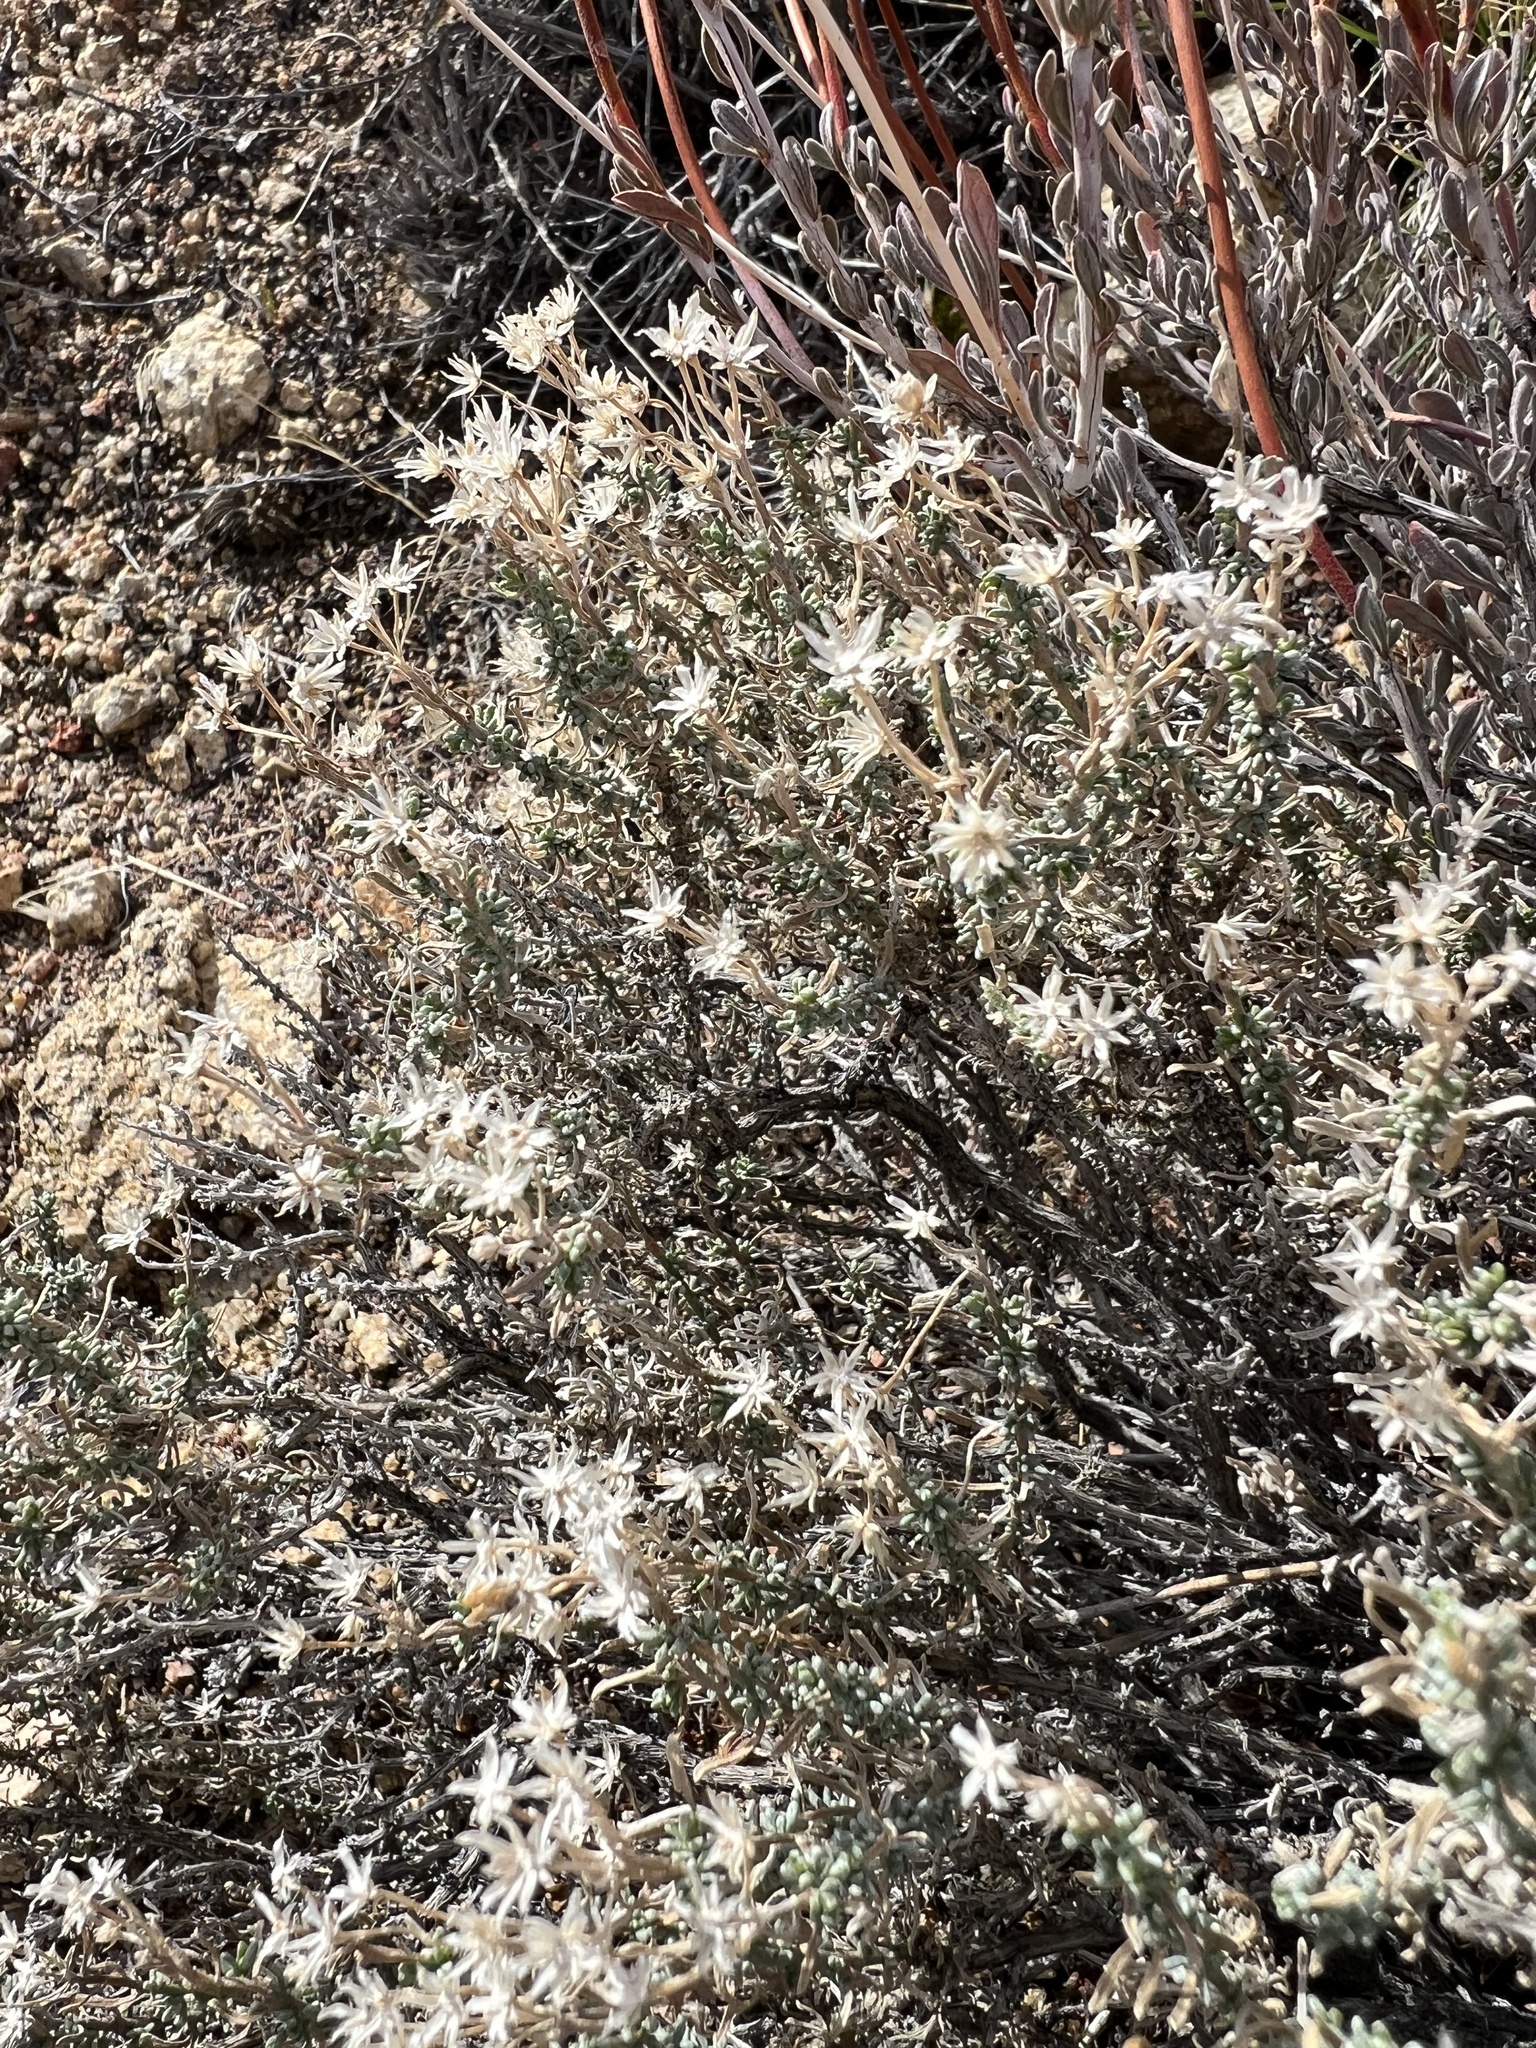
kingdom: Plantae
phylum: Tracheophyta
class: Magnoliopsida
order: Asterales
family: Asteraceae
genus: Ericameria
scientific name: Ericameria cooperi
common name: Cooper's goldenbush
